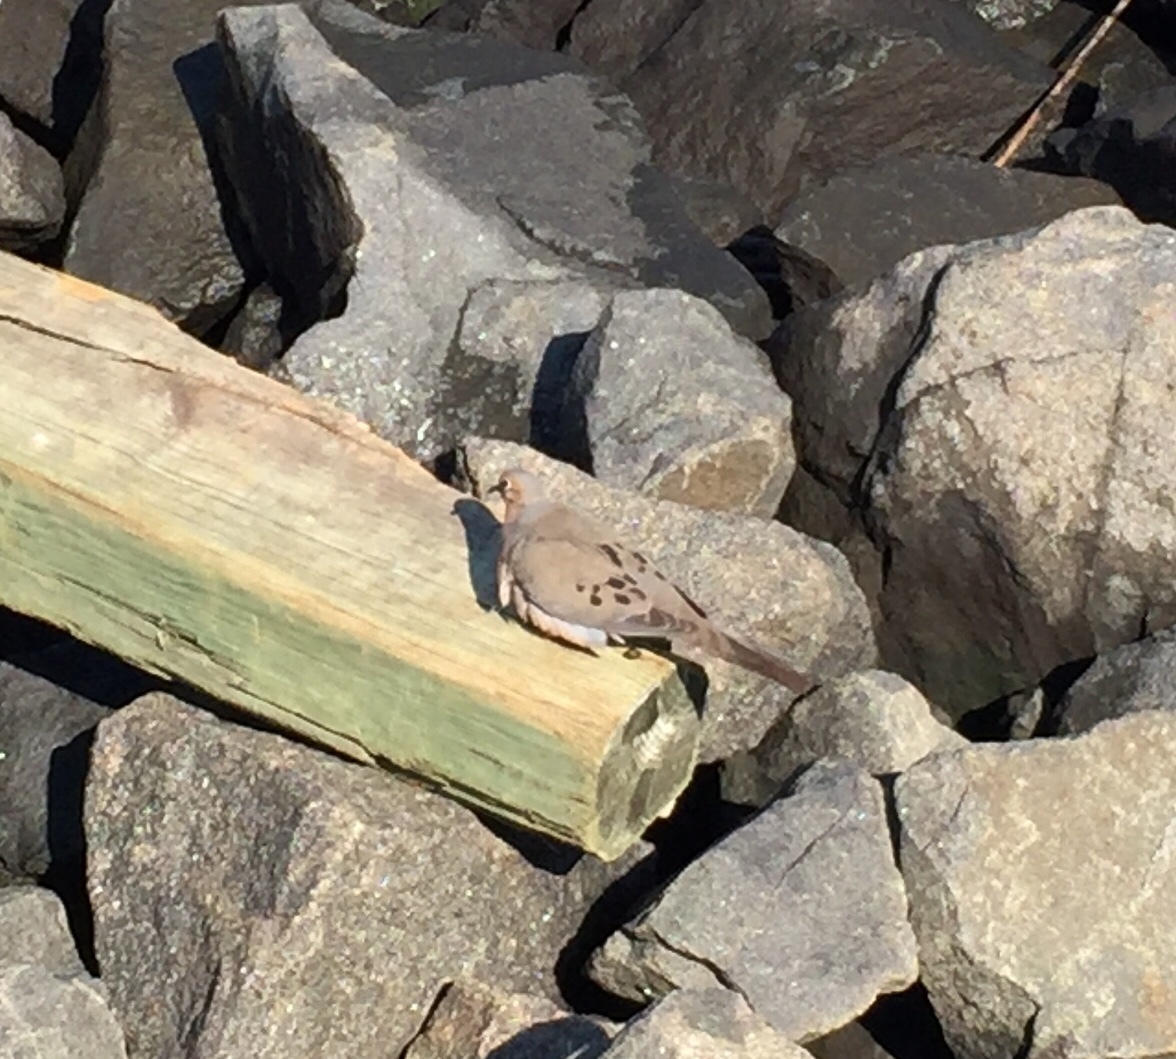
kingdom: Animalia
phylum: Chordata
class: Aves
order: Columbiformes
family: Columbidae
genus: Zenaida
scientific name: Zenaida macroura
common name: Mourning dove
